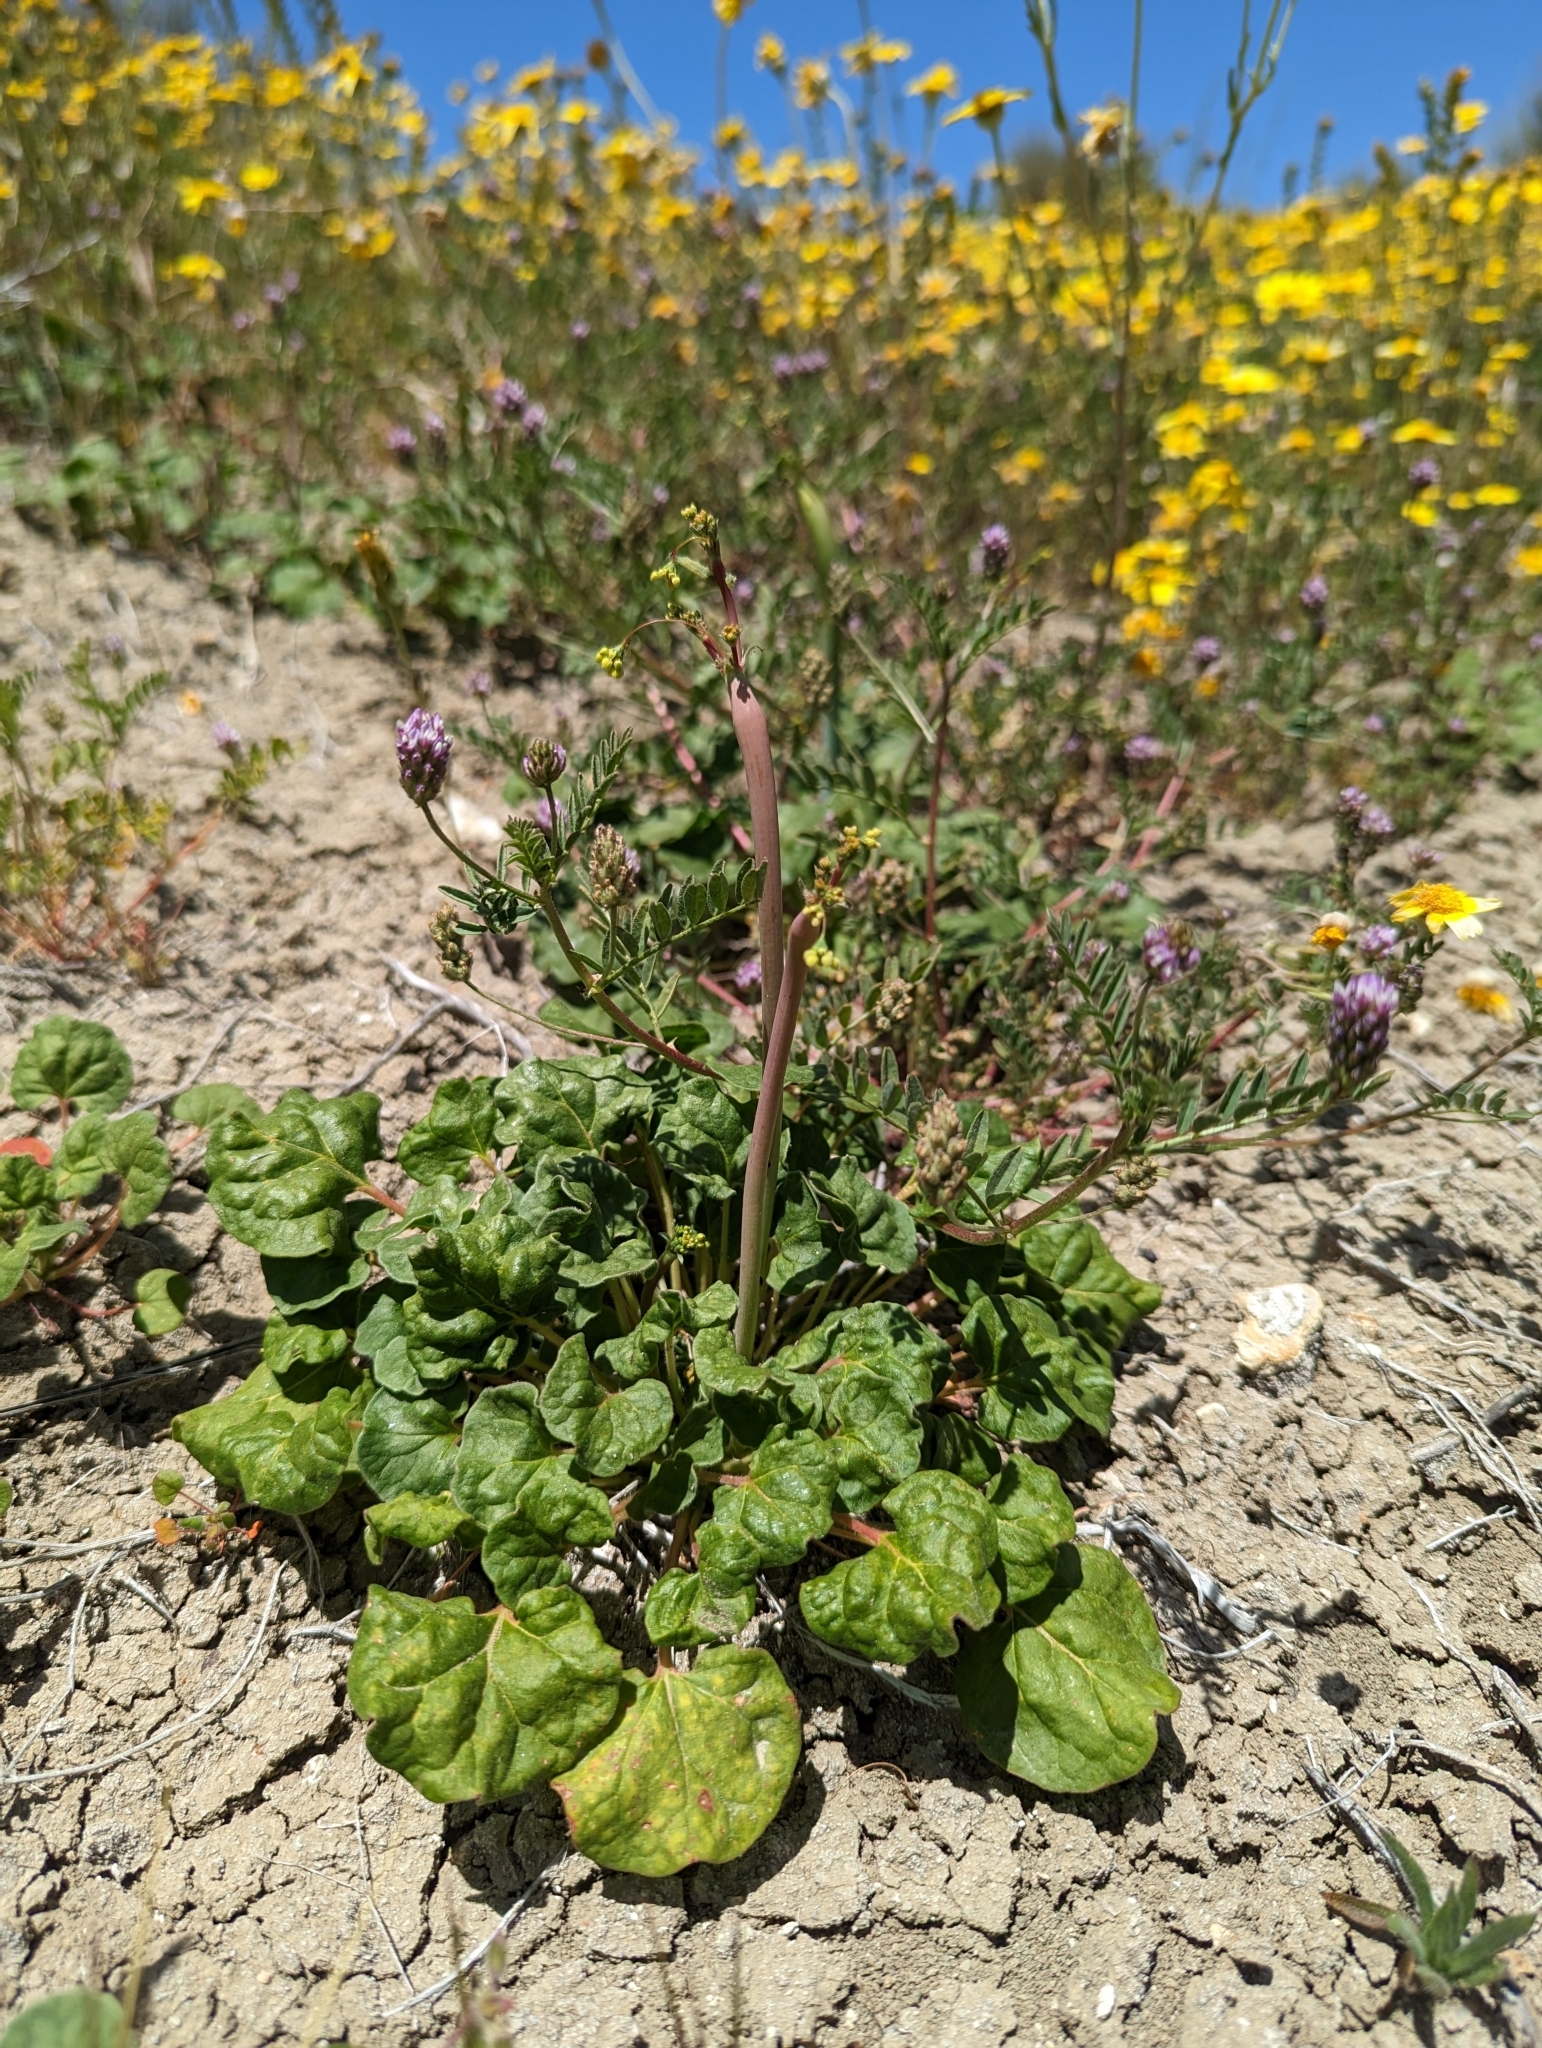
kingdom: Plantae
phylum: Tracheophyta
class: Magnoliopsida
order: Caryophyllales
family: Polygonaceae
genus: Eriogonum
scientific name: Eriogonum clavatum
